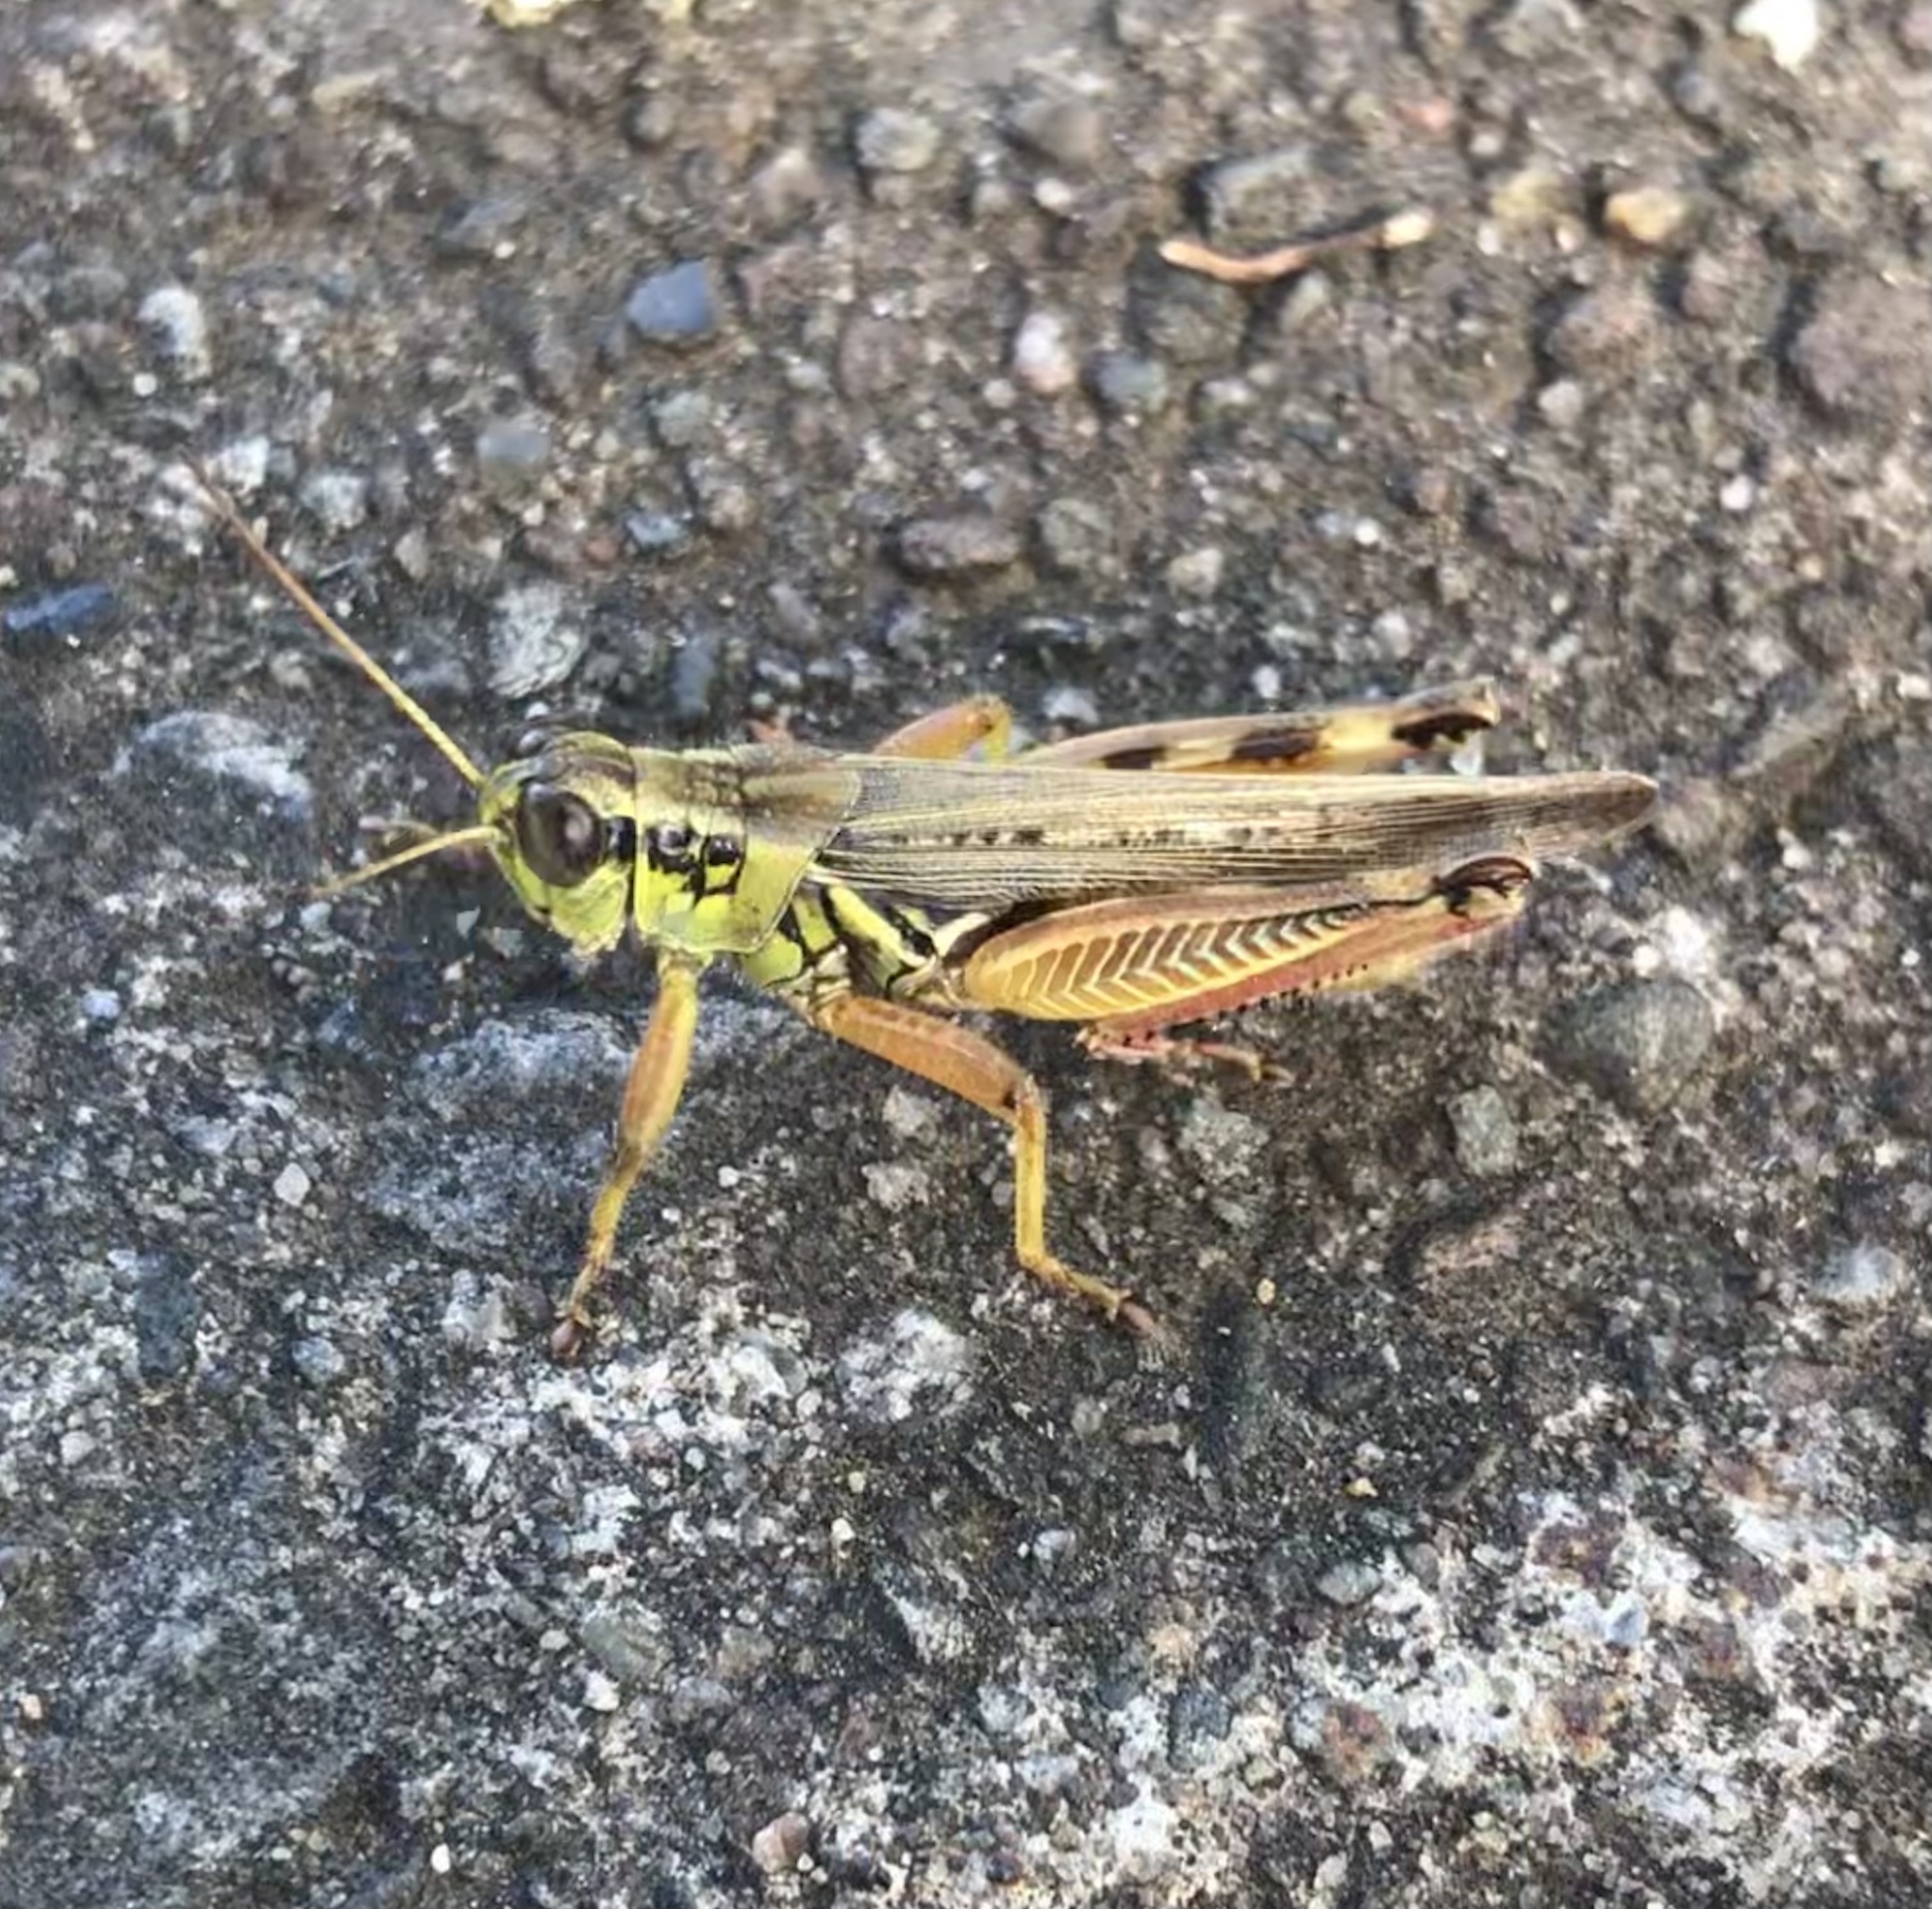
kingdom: Animalia
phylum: Arthropoda
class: Insecta
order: Orthoptera
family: Acrididae
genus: Melanoplus
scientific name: Melanoplus femurrubrum
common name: Red-legged grasshopper
